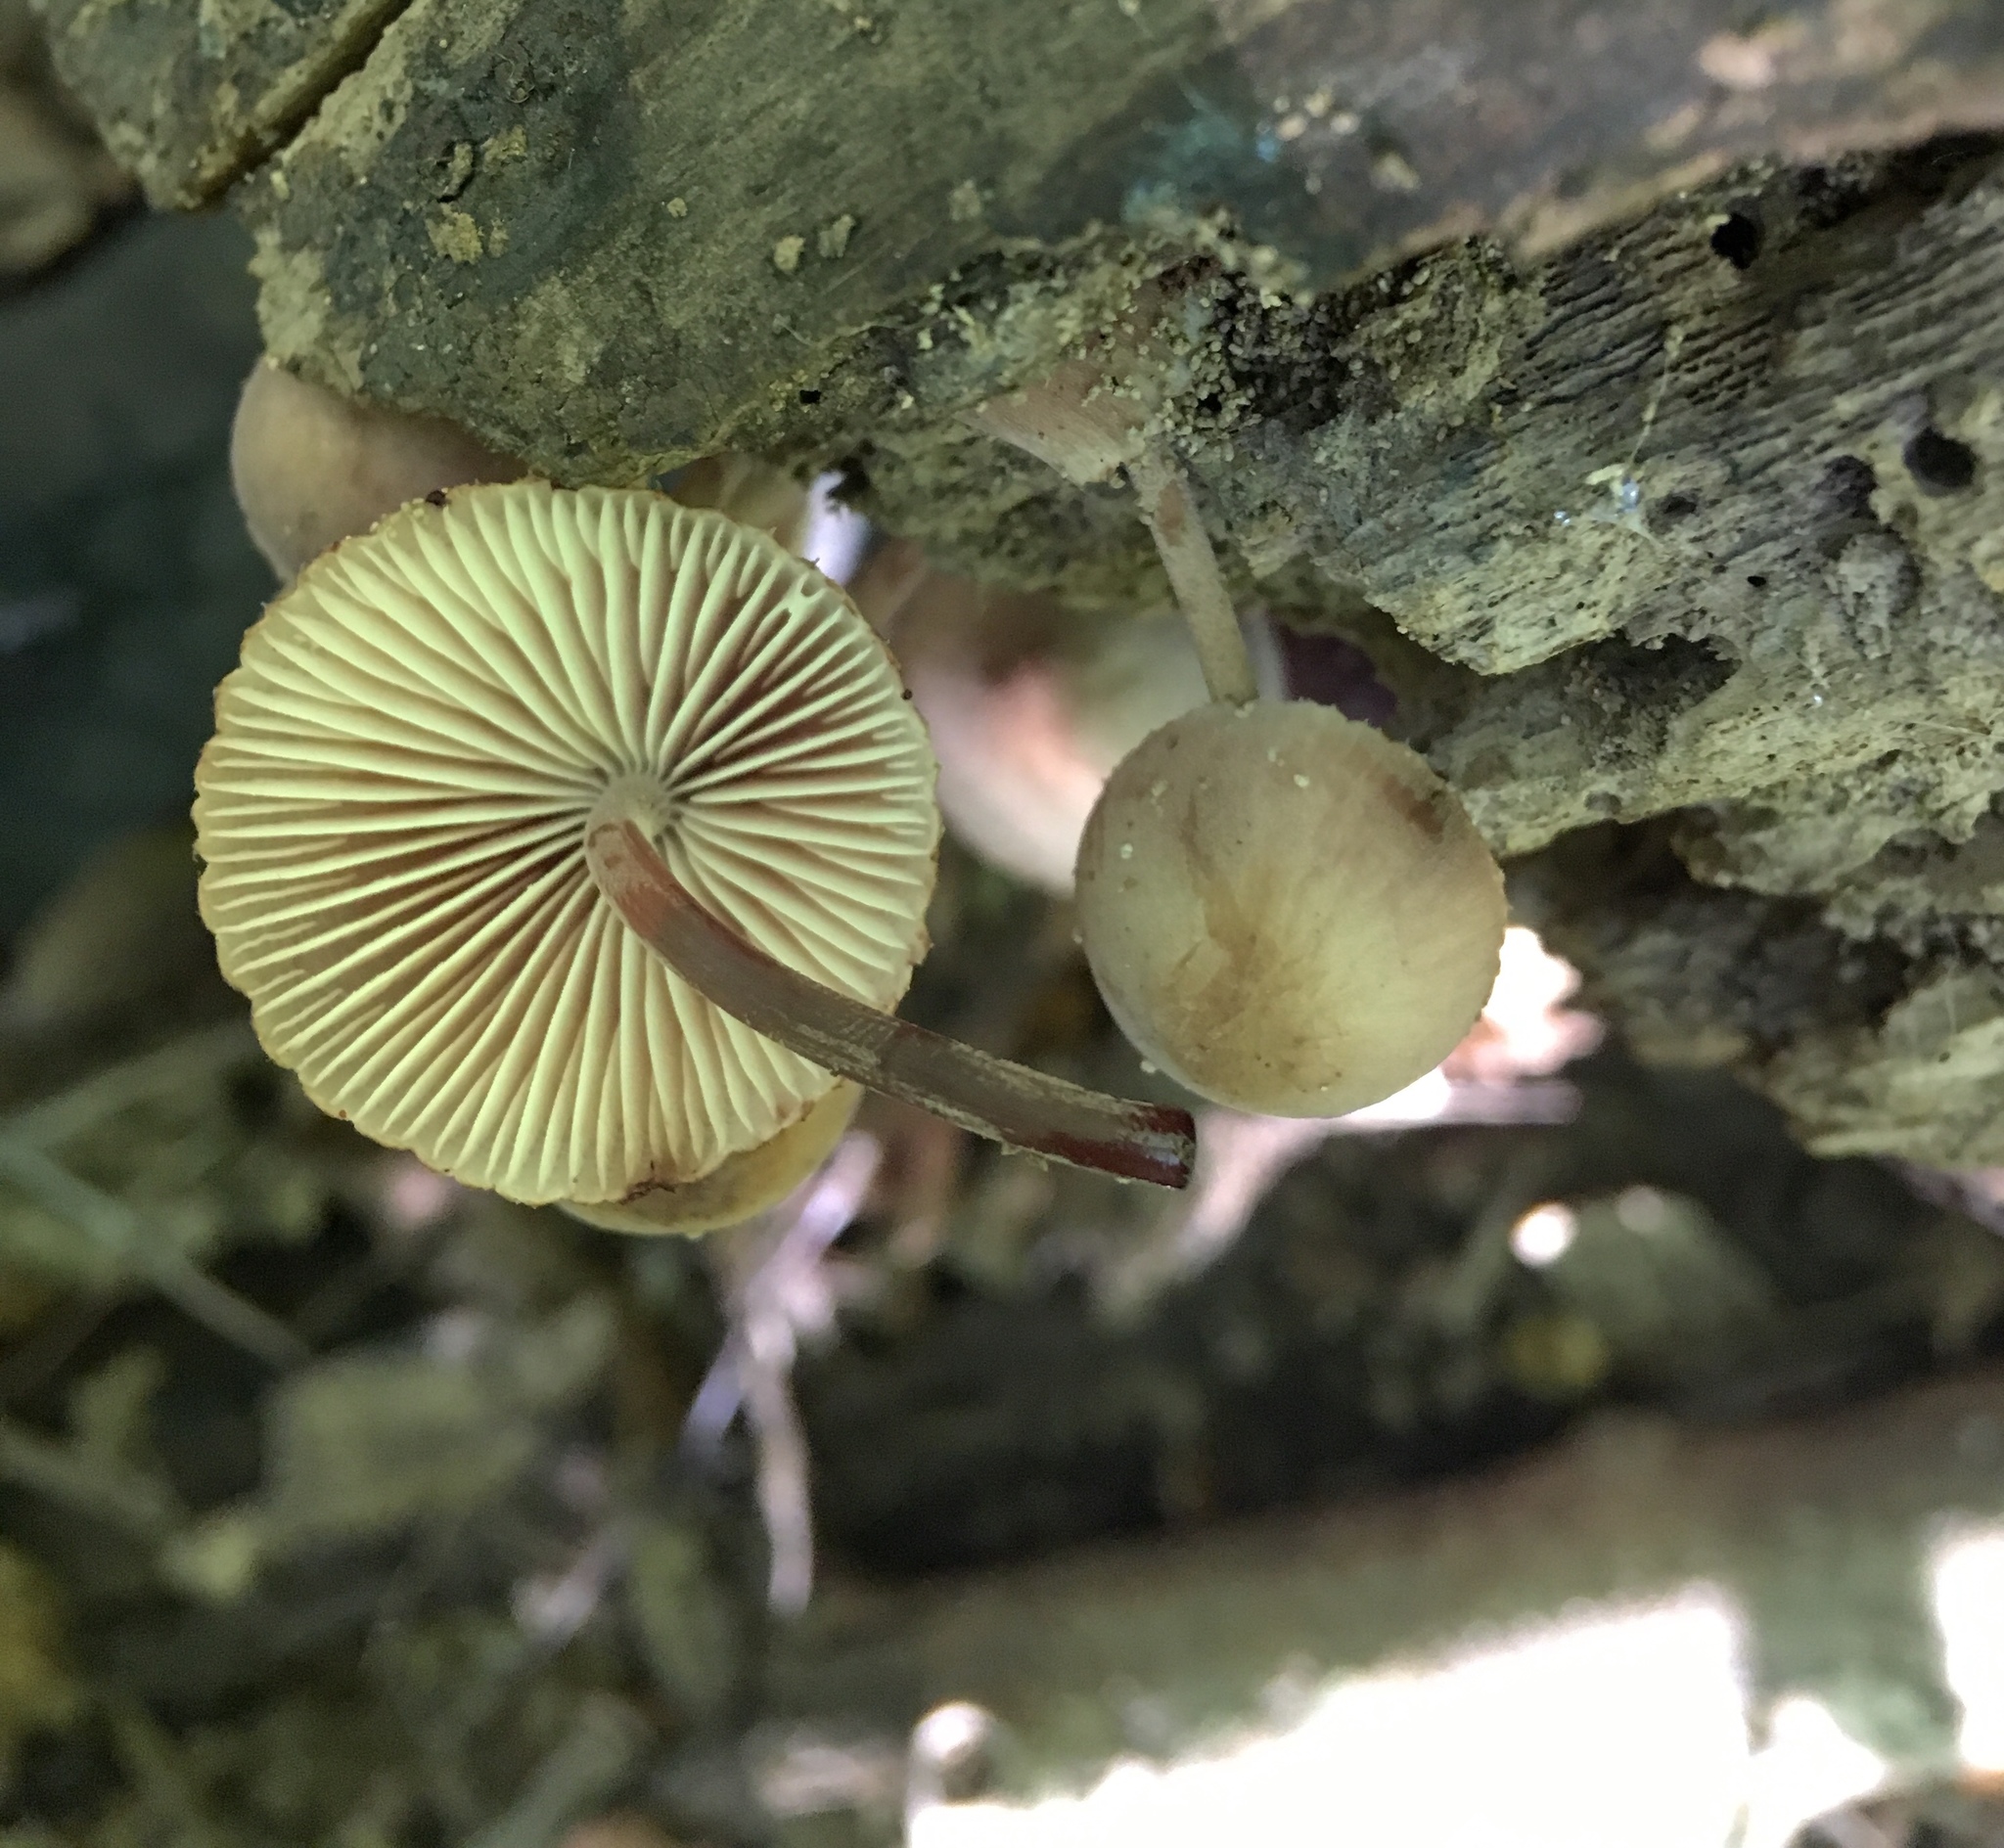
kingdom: Fungi
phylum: Basidiomycota
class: Agaricomycetes
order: Agaricales
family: Mycenaceae
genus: Mycena
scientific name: Mycena haematopus
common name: Burgundydrop bonnet
